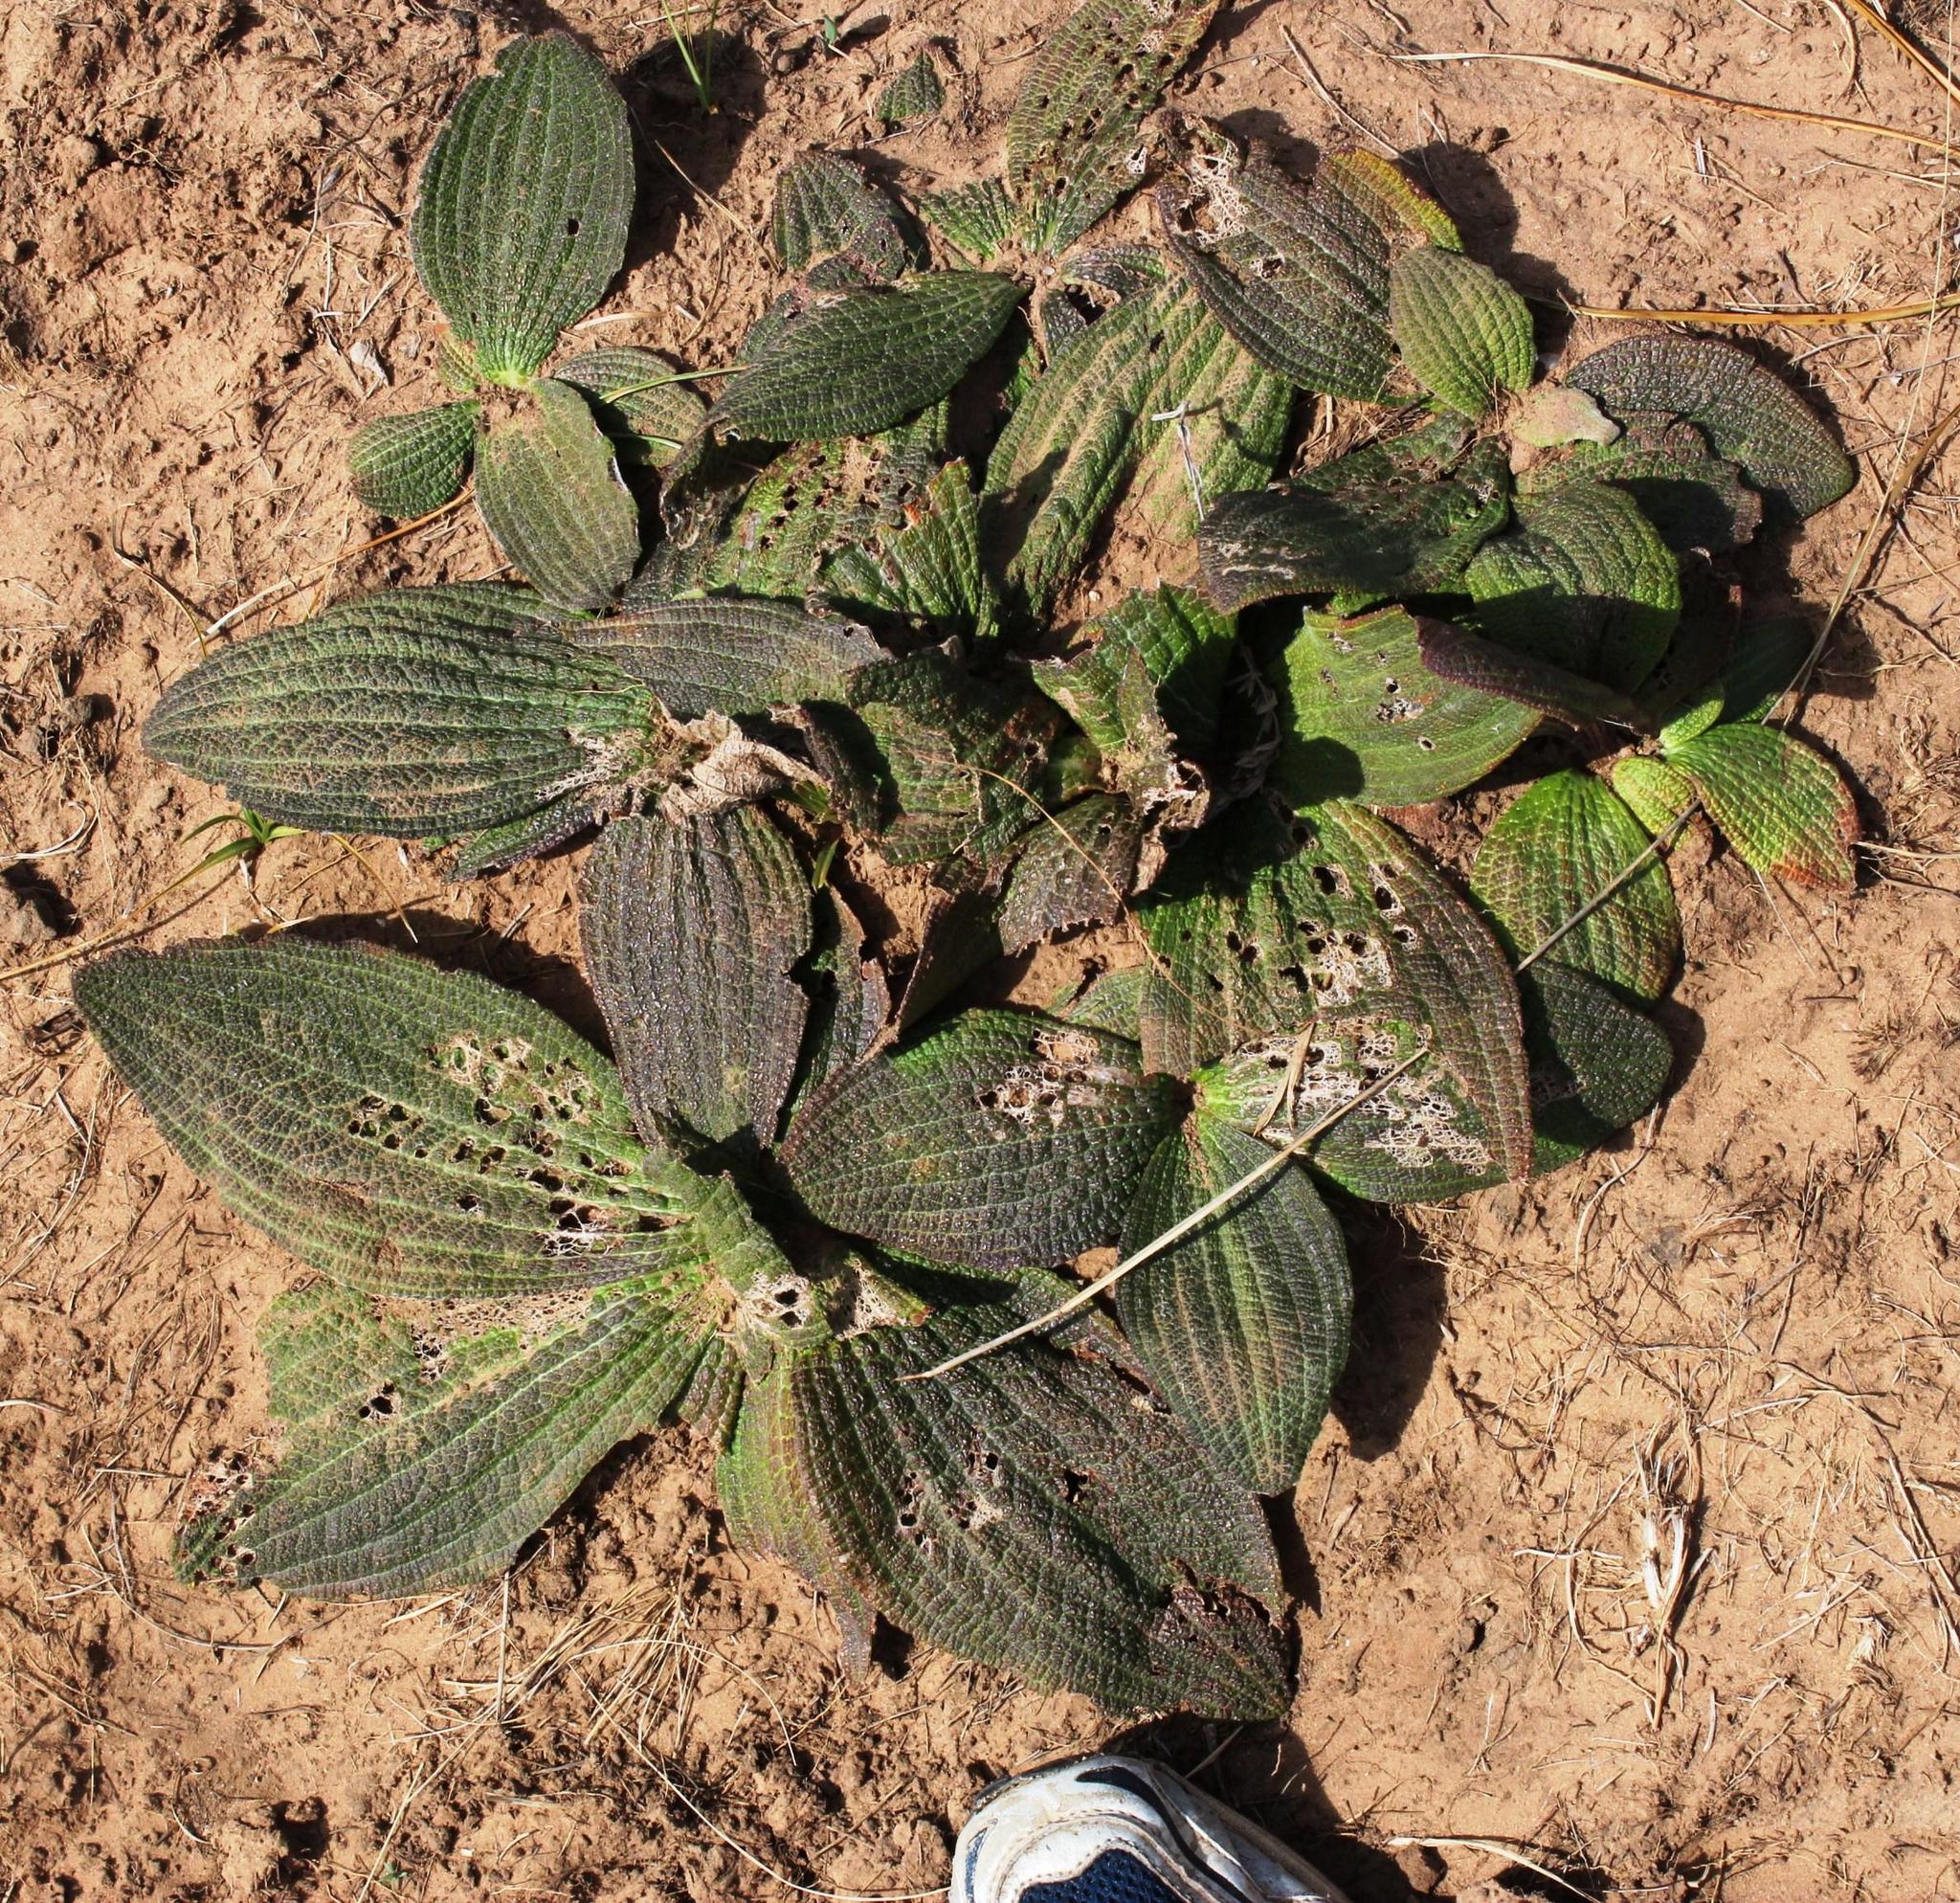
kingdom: Plantae
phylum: Tracheophyta
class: Magnoliopsida
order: Asterales
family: Asteraceae
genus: Haplocarpha
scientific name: Haplocarpha scaposa
